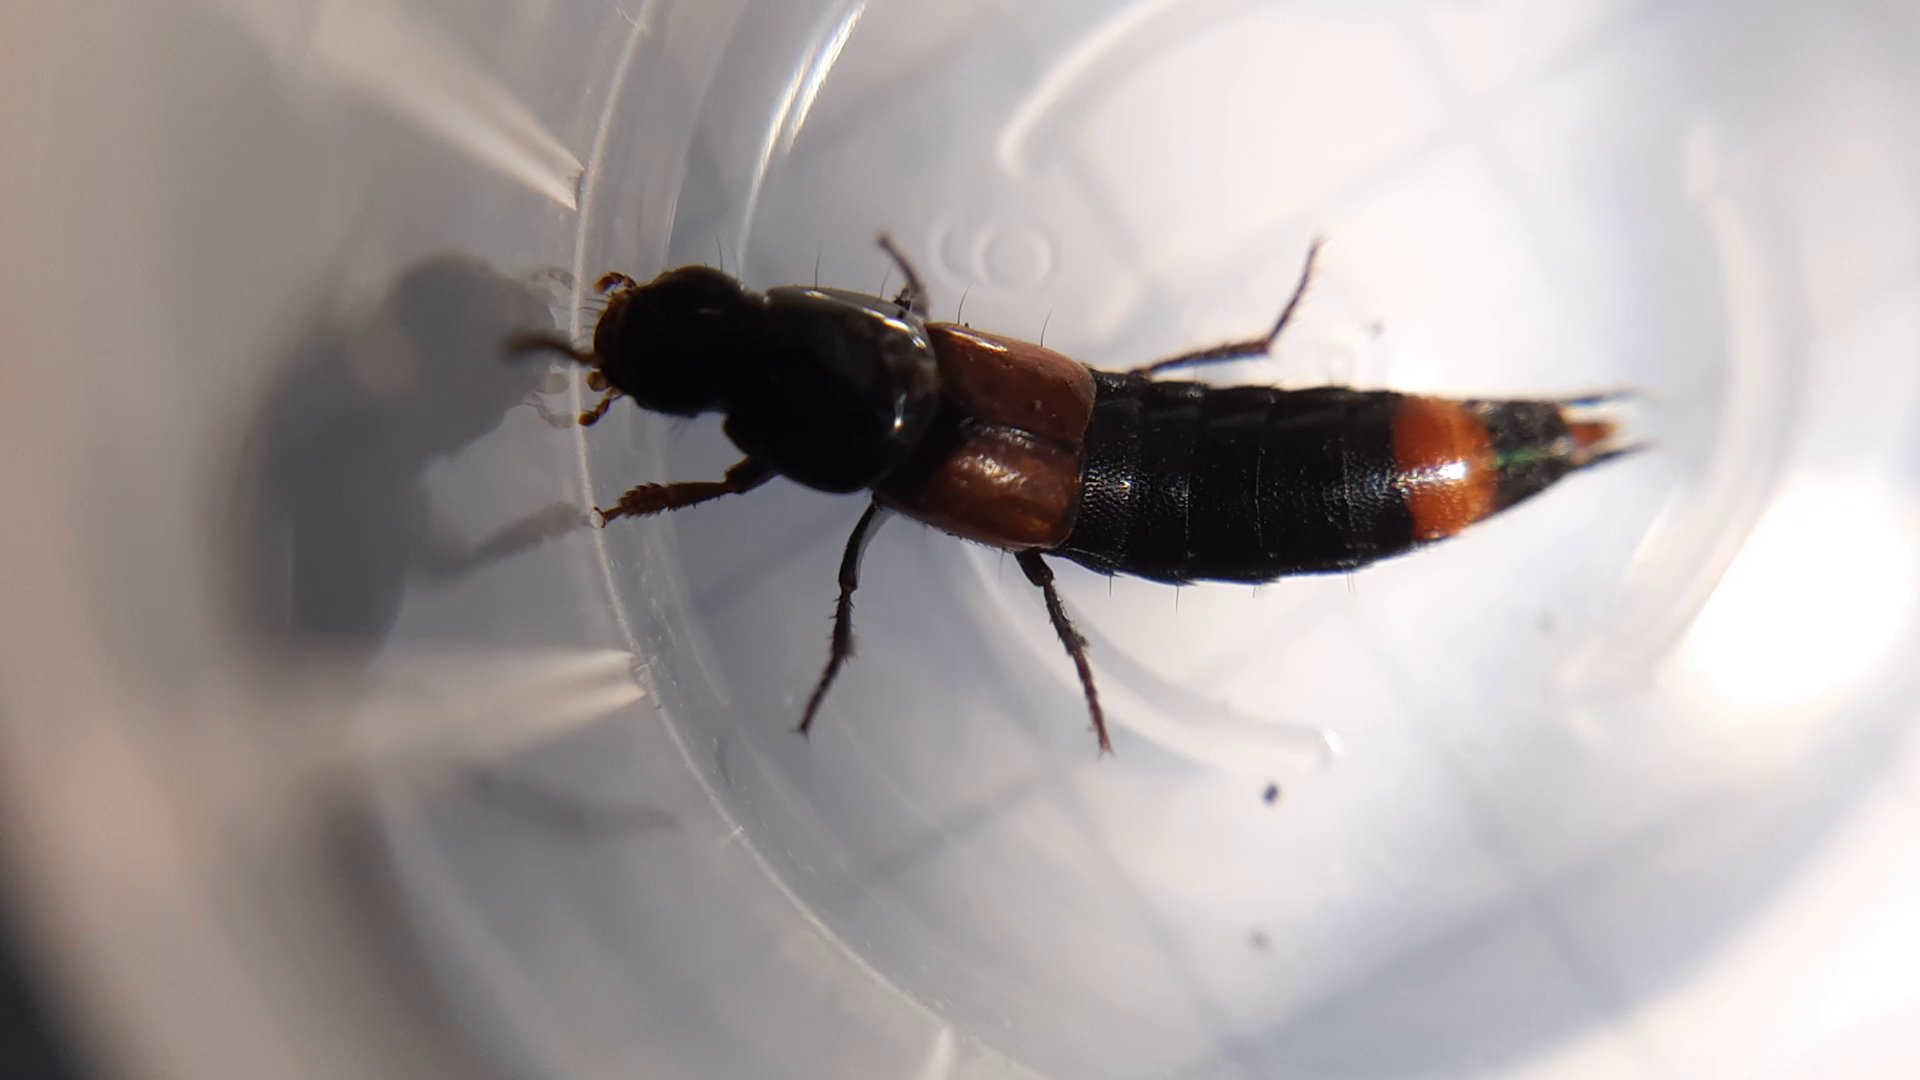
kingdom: Animalia
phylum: Arthropoda
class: Insecta
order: Coleoptera
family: Staphylinidae
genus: Astrapaeus
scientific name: Astrapaeus ulmi
